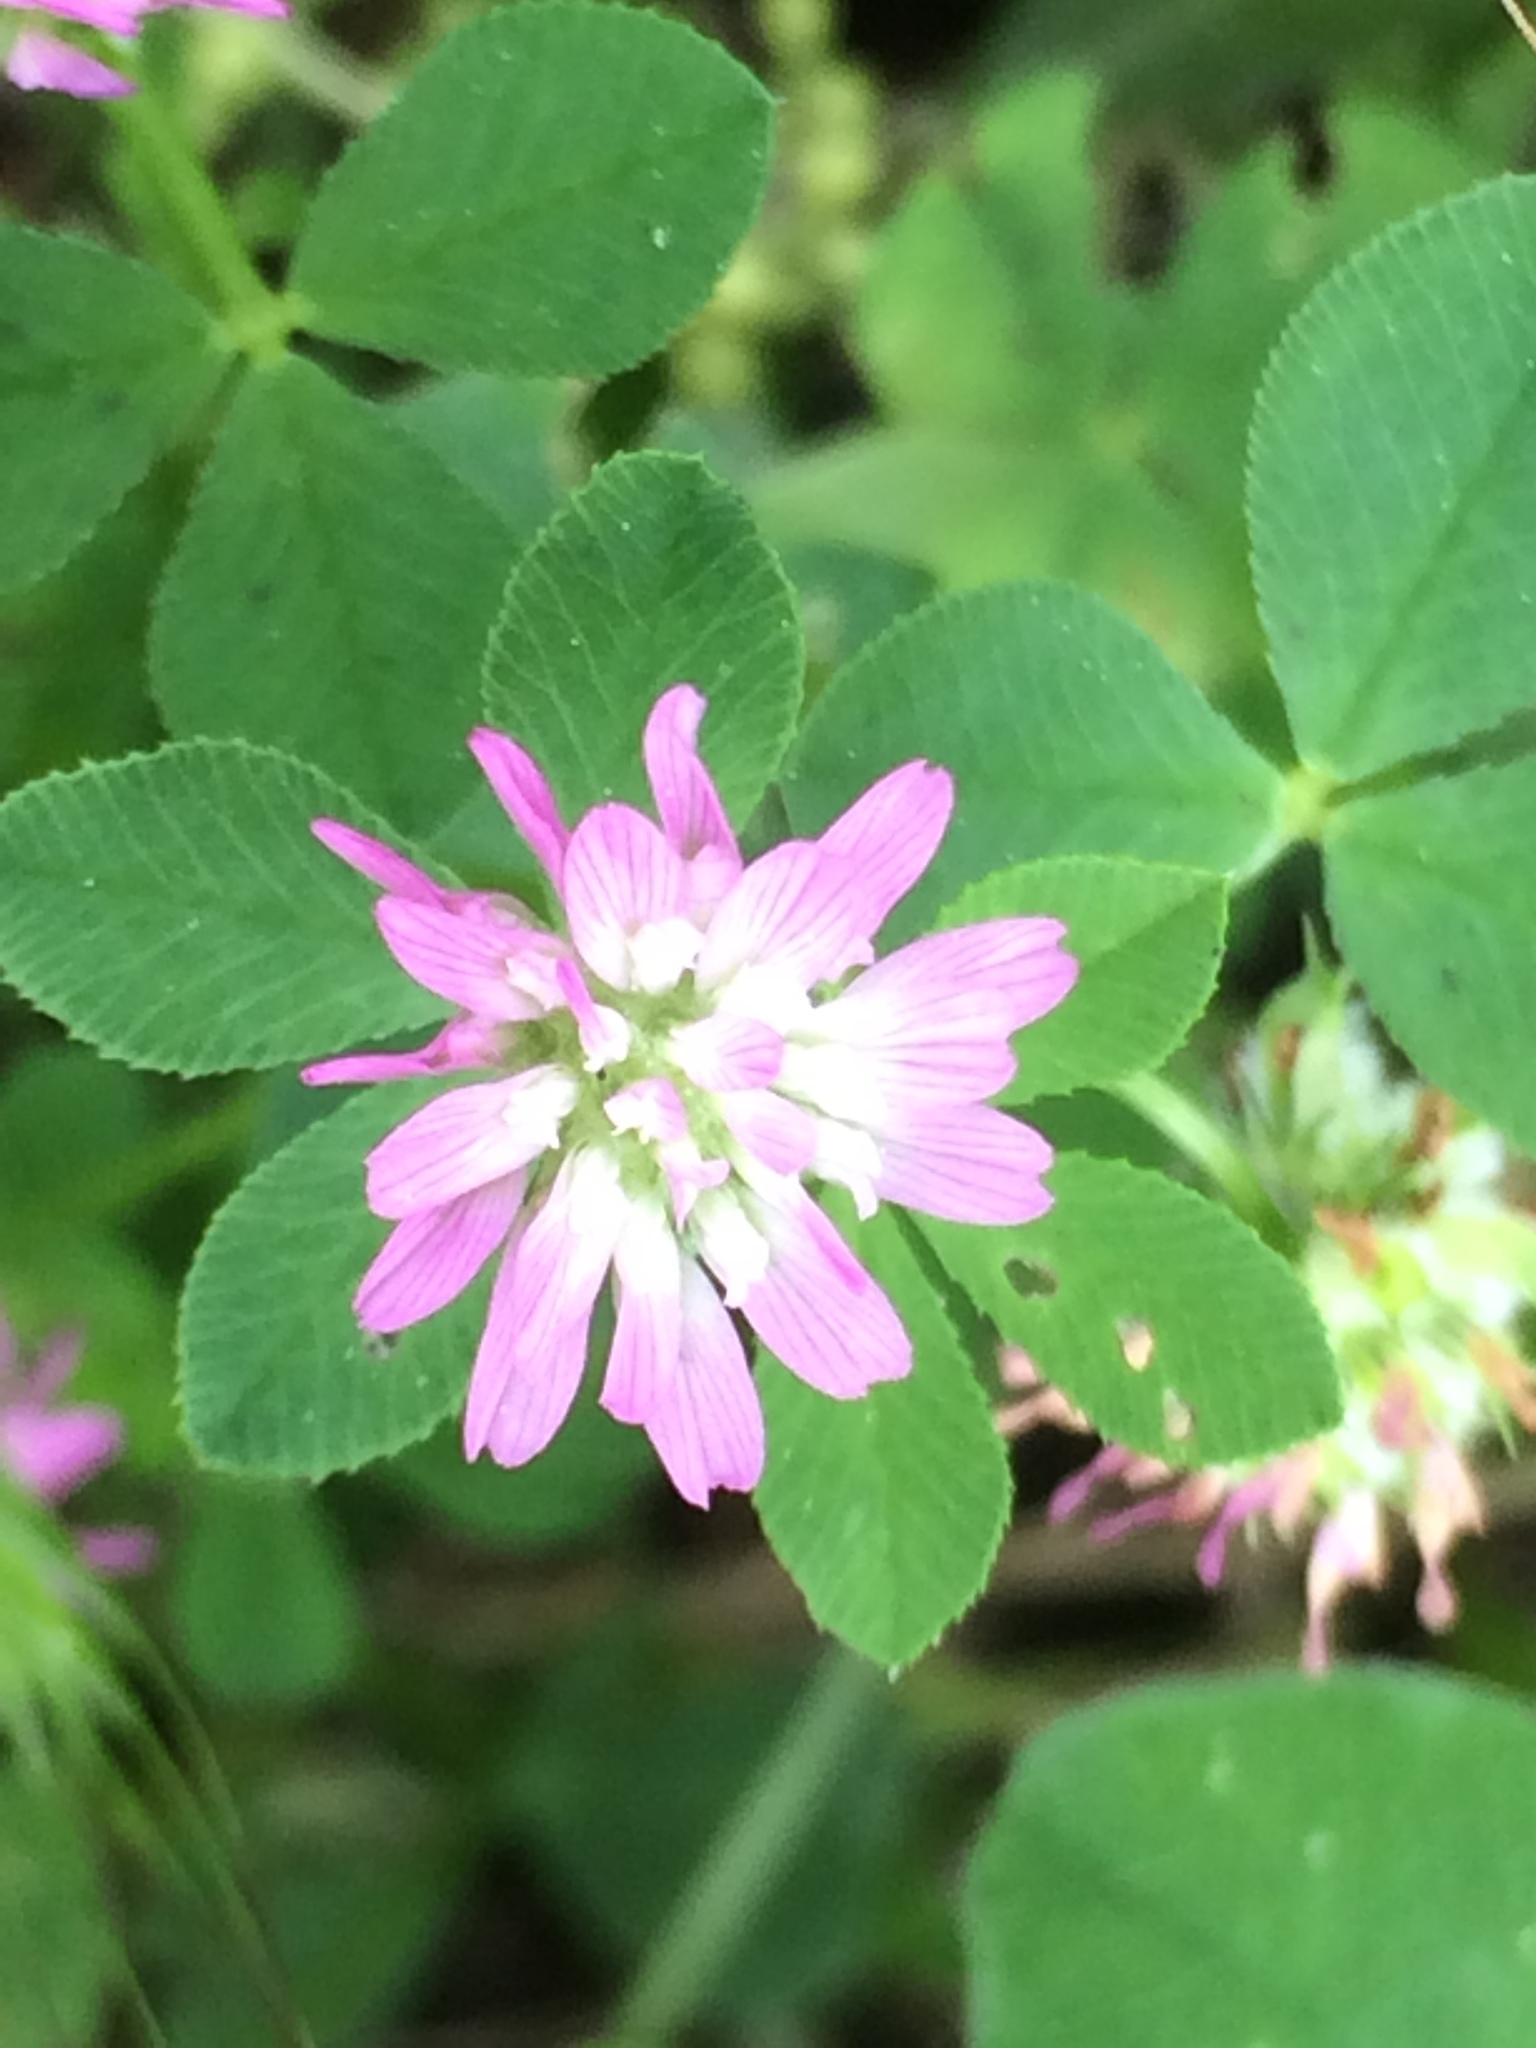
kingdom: Plantae
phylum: Tracheophyta
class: Magnoliopsida
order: Fabales
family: Fabaceae
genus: Trifolium
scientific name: Trifolium resupinatum
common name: Reversed clover
